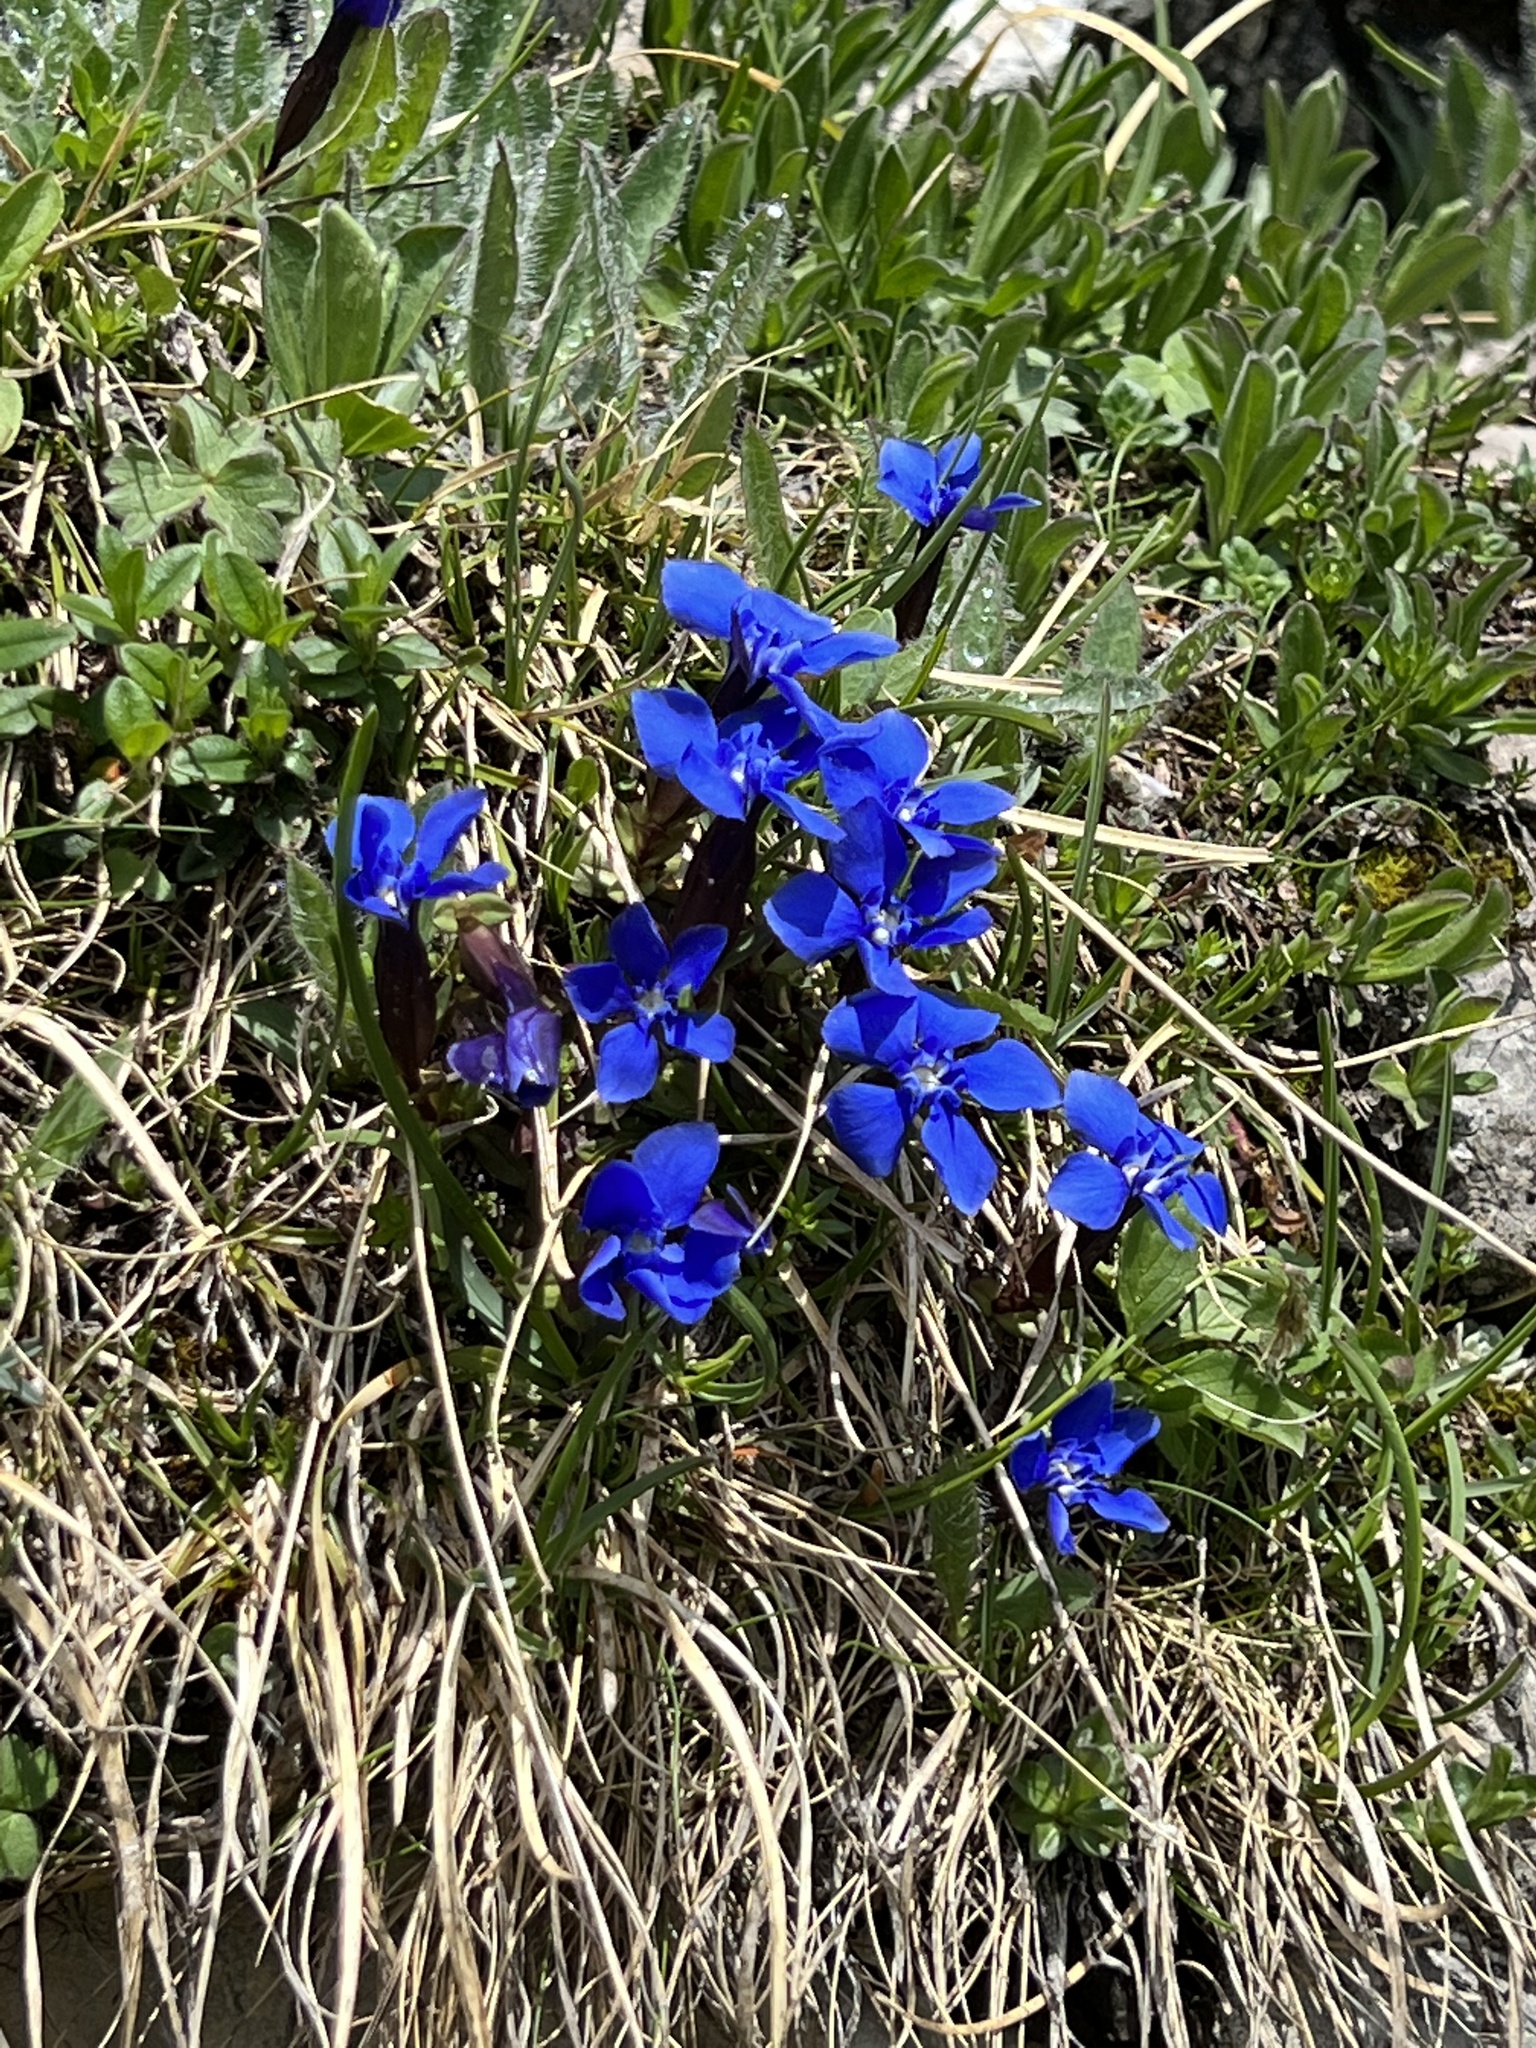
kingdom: Plantae
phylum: Tracheophyta
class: Magnoliopsida
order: Gentianales
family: Gentianaceae
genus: Gentiana
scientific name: Gentiana verna
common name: Spring gentian
